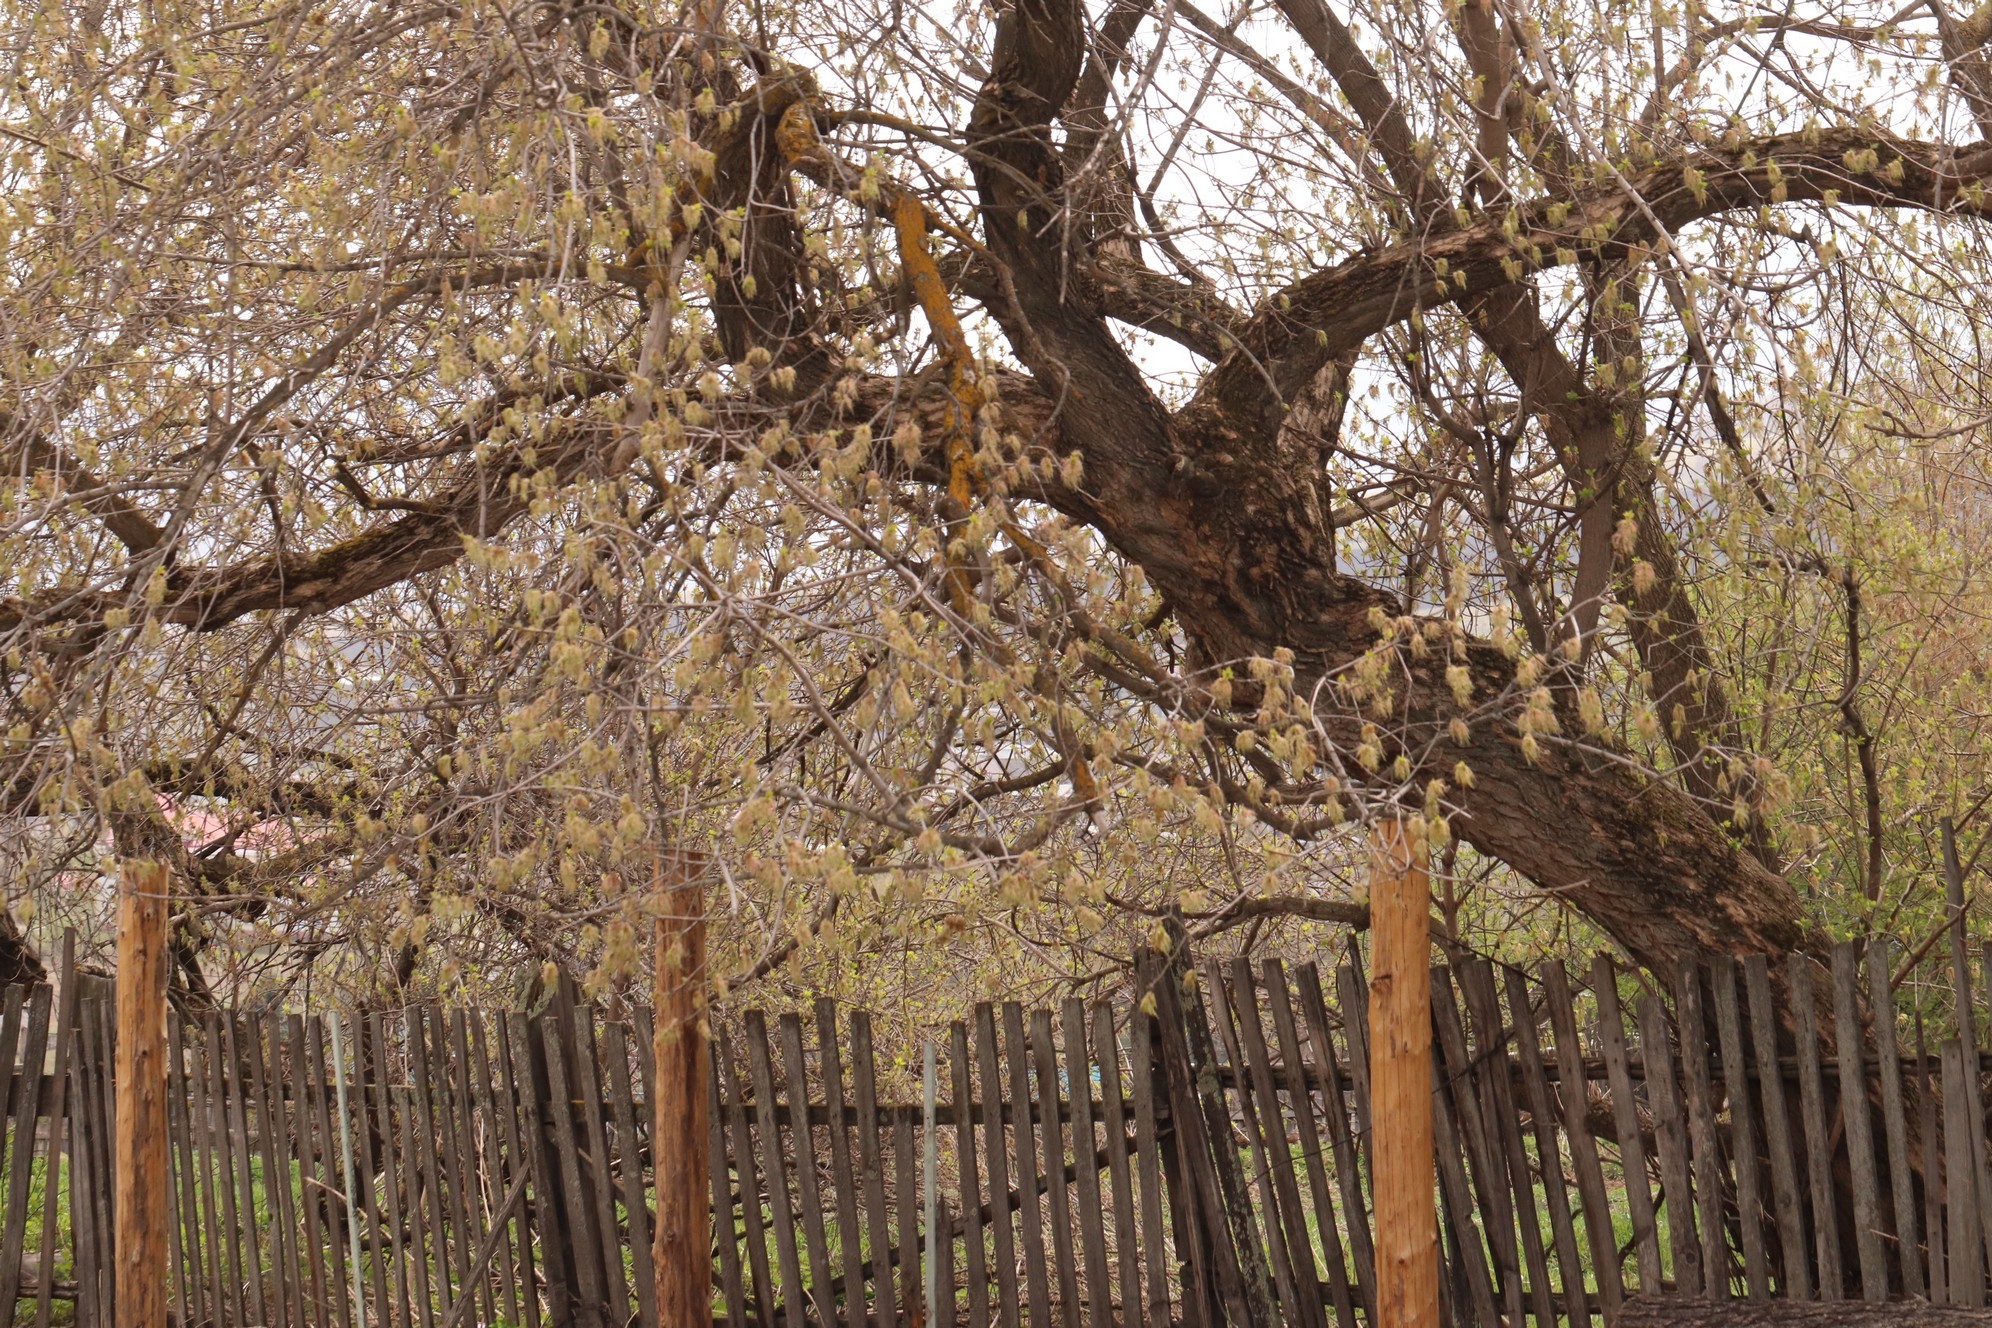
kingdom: Plantae
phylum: Tracheophyta
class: Magnoliopsida
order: Sapindales
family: Sapindaceae
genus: Acer
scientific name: Acer negundo
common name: Ashleaf maple
